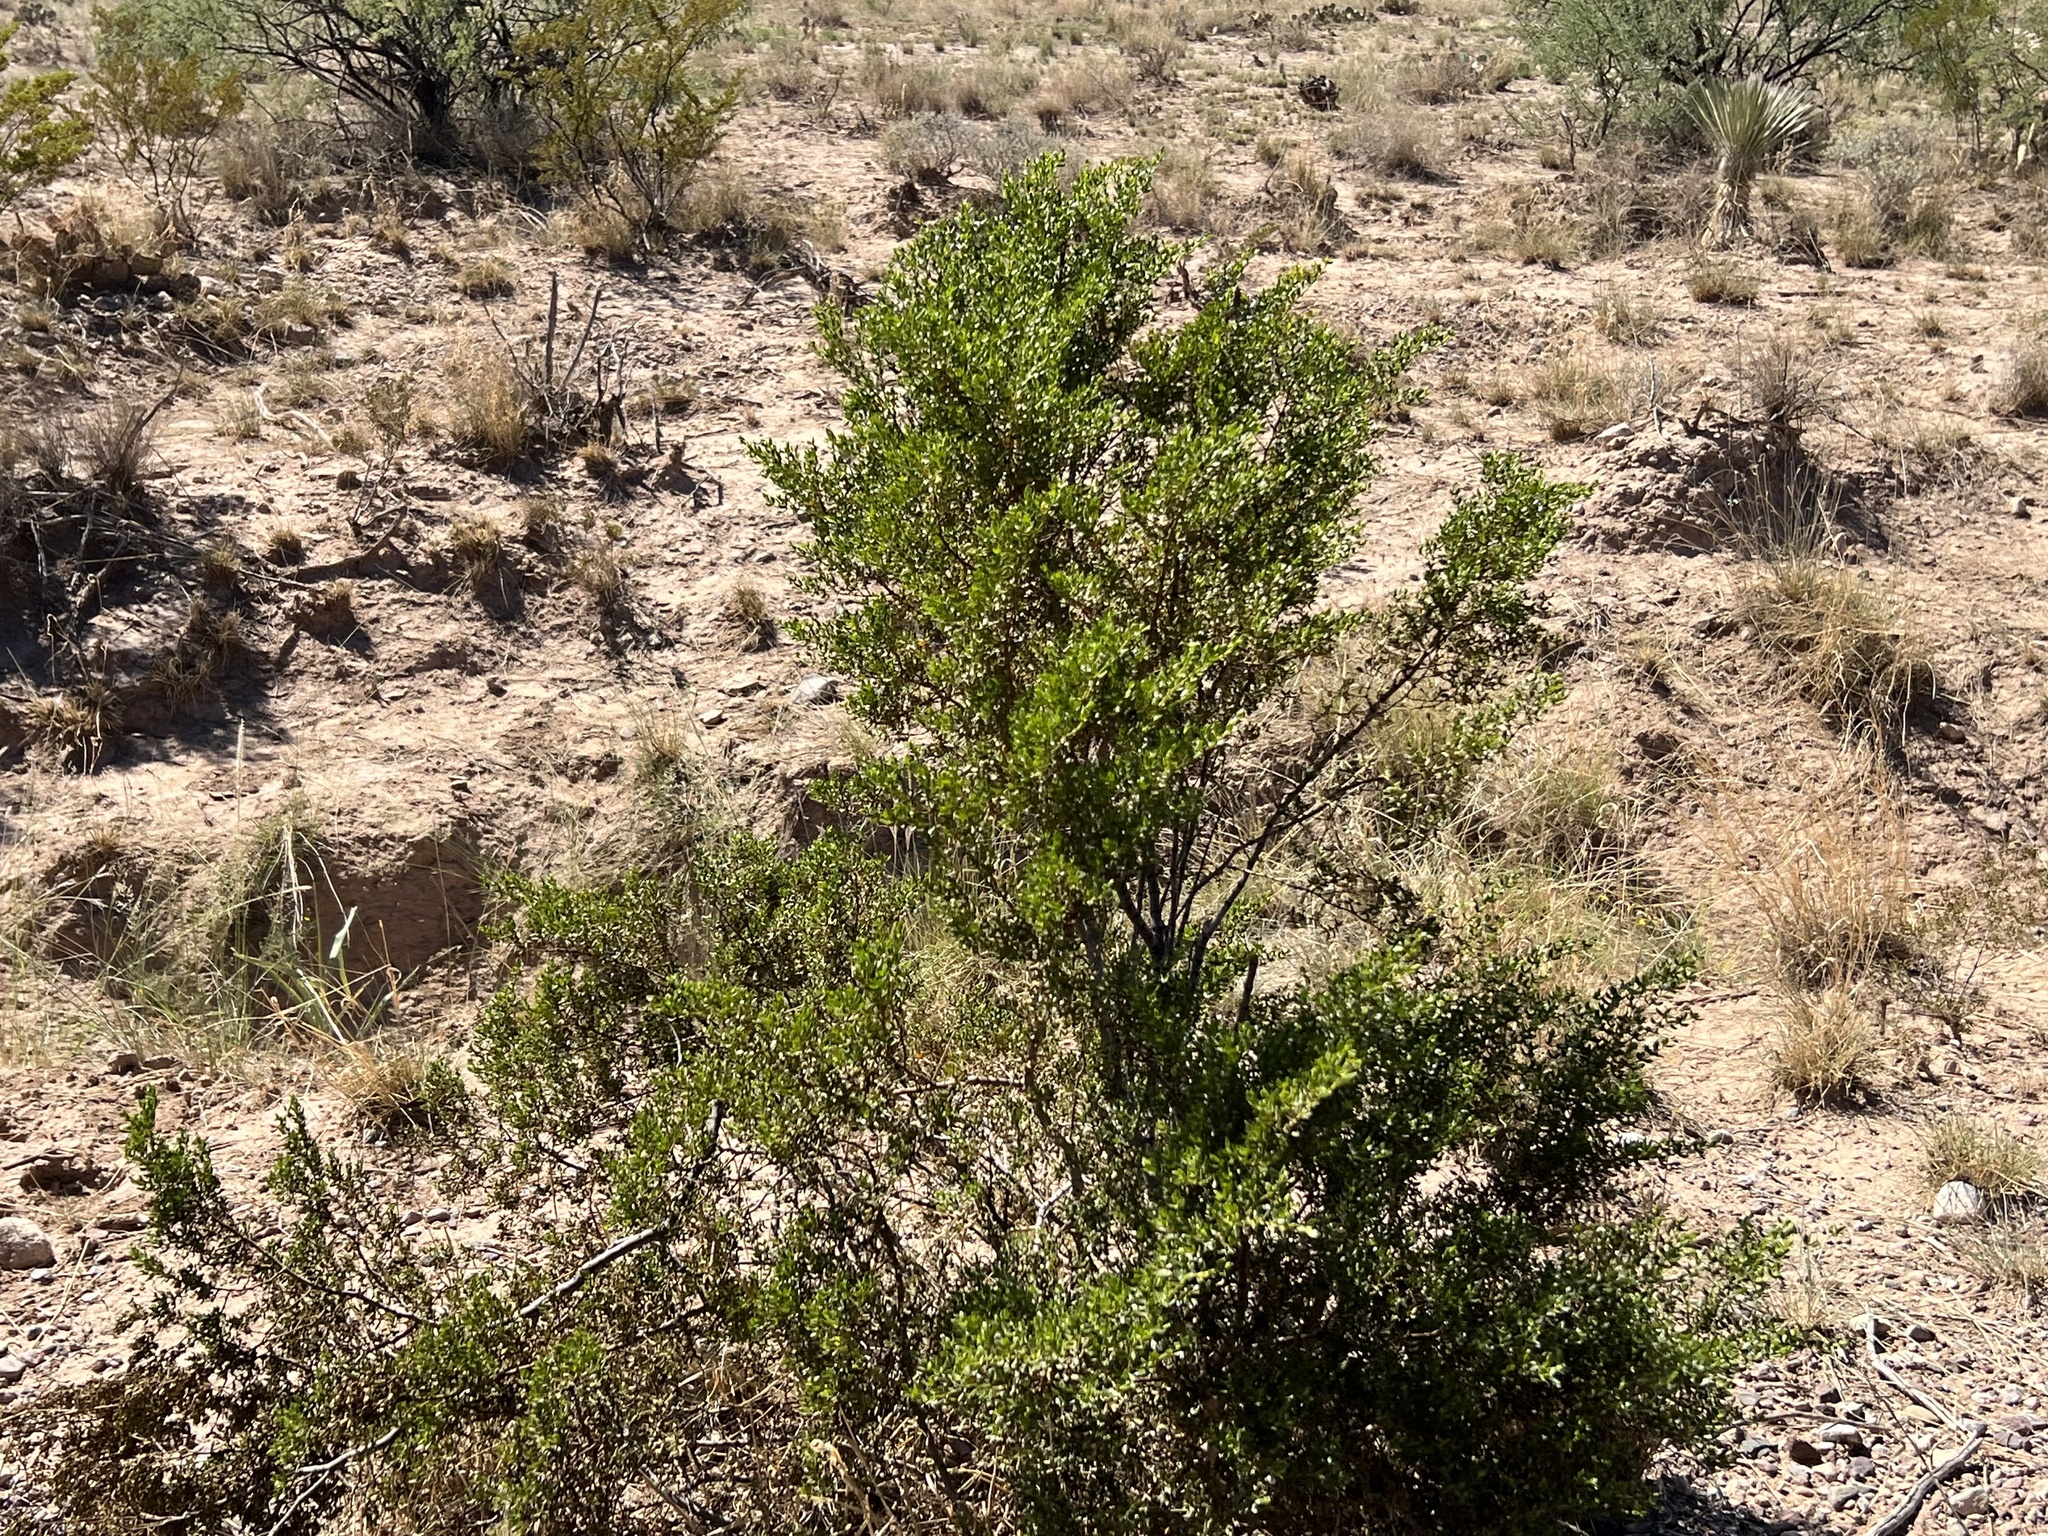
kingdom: Plantae
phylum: Tracheophyta
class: Magnoliopsida
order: Zygophyllales
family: Zygophyllaceae
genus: Larrea
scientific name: Larrea tridentata
